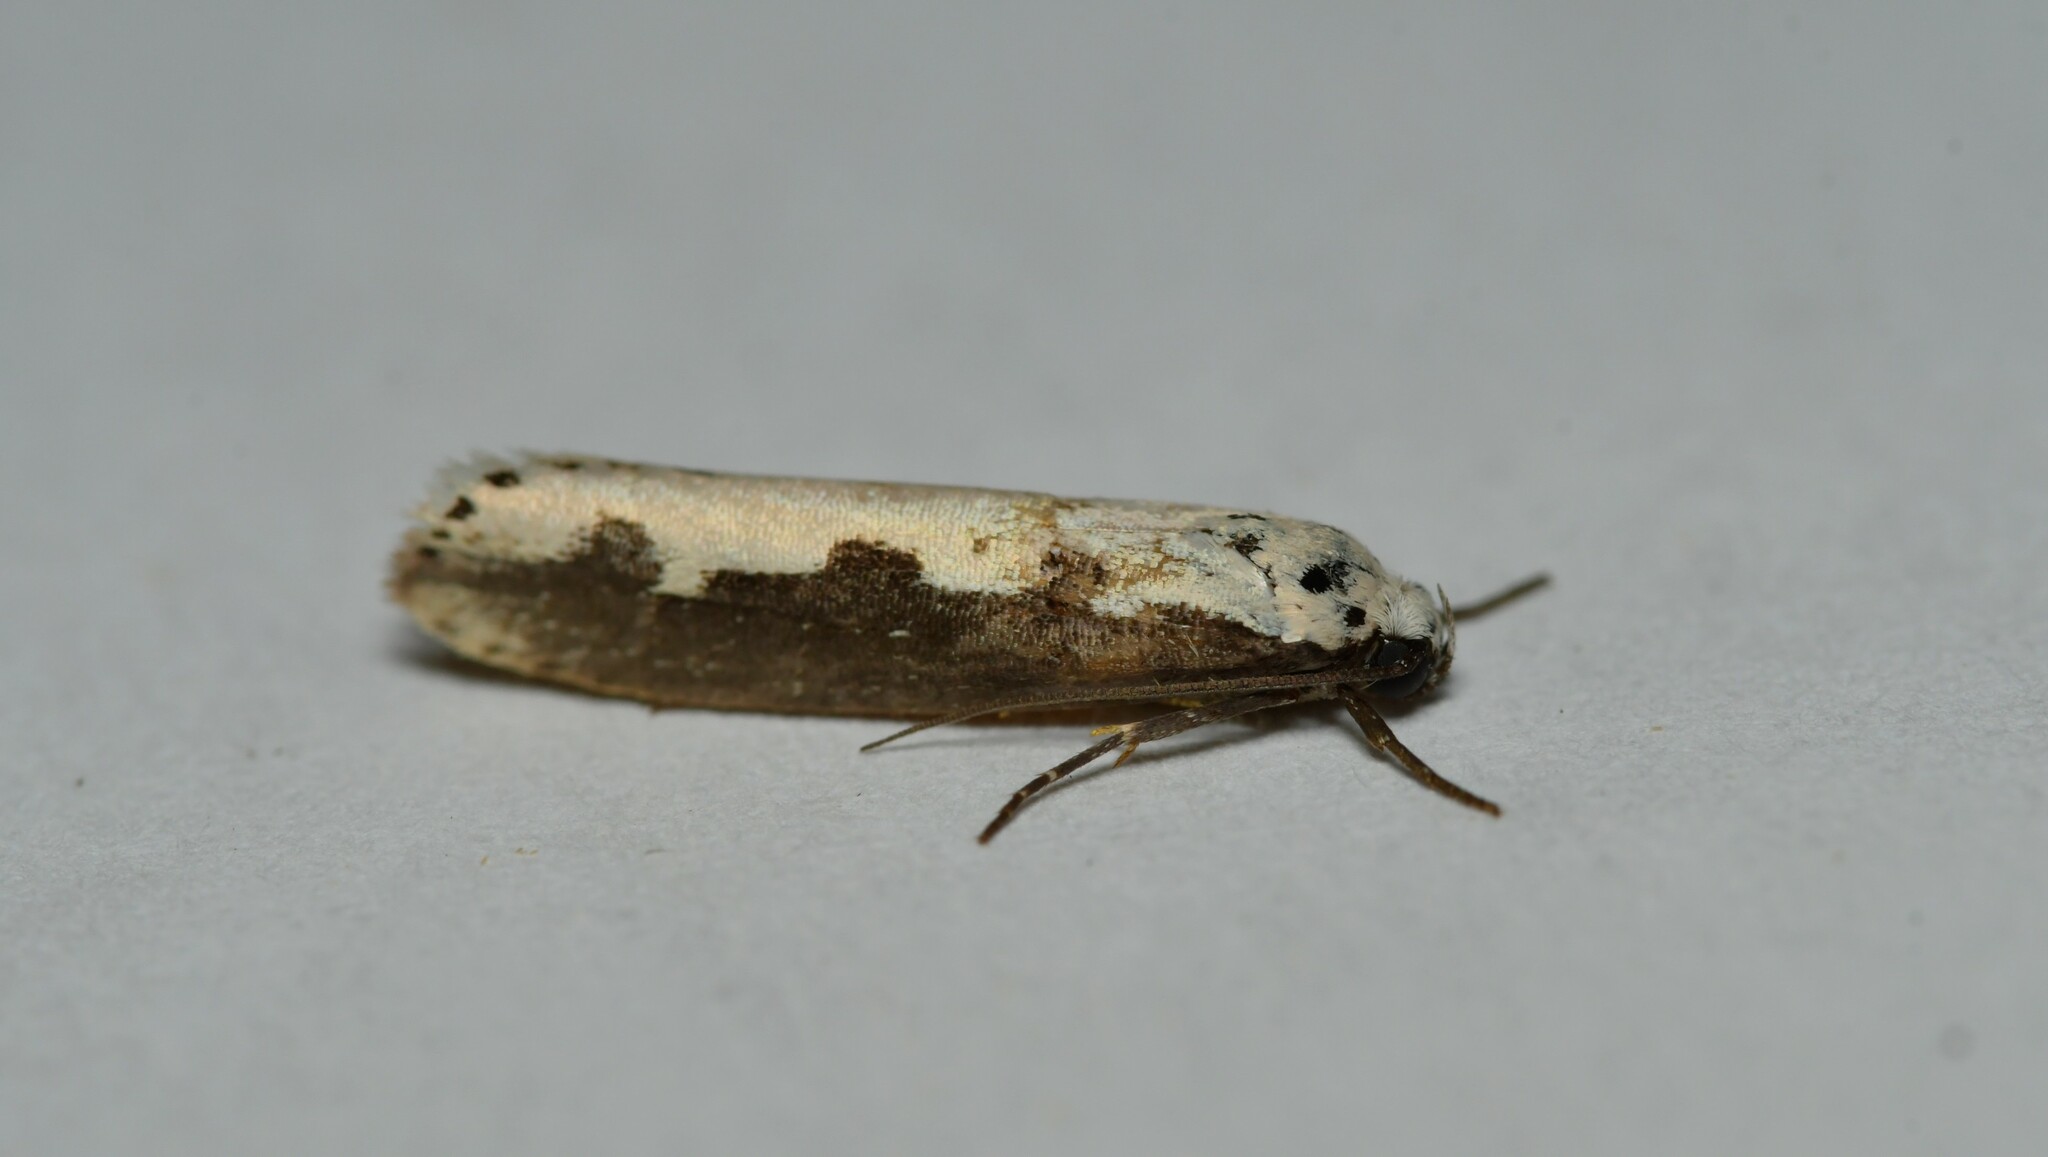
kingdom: Animalia
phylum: Arthropoda
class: Insecta
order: Lepidoptera
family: Ethmiidae
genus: Ethmia
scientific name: Ethmia bipunctella
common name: Bordered ermel
